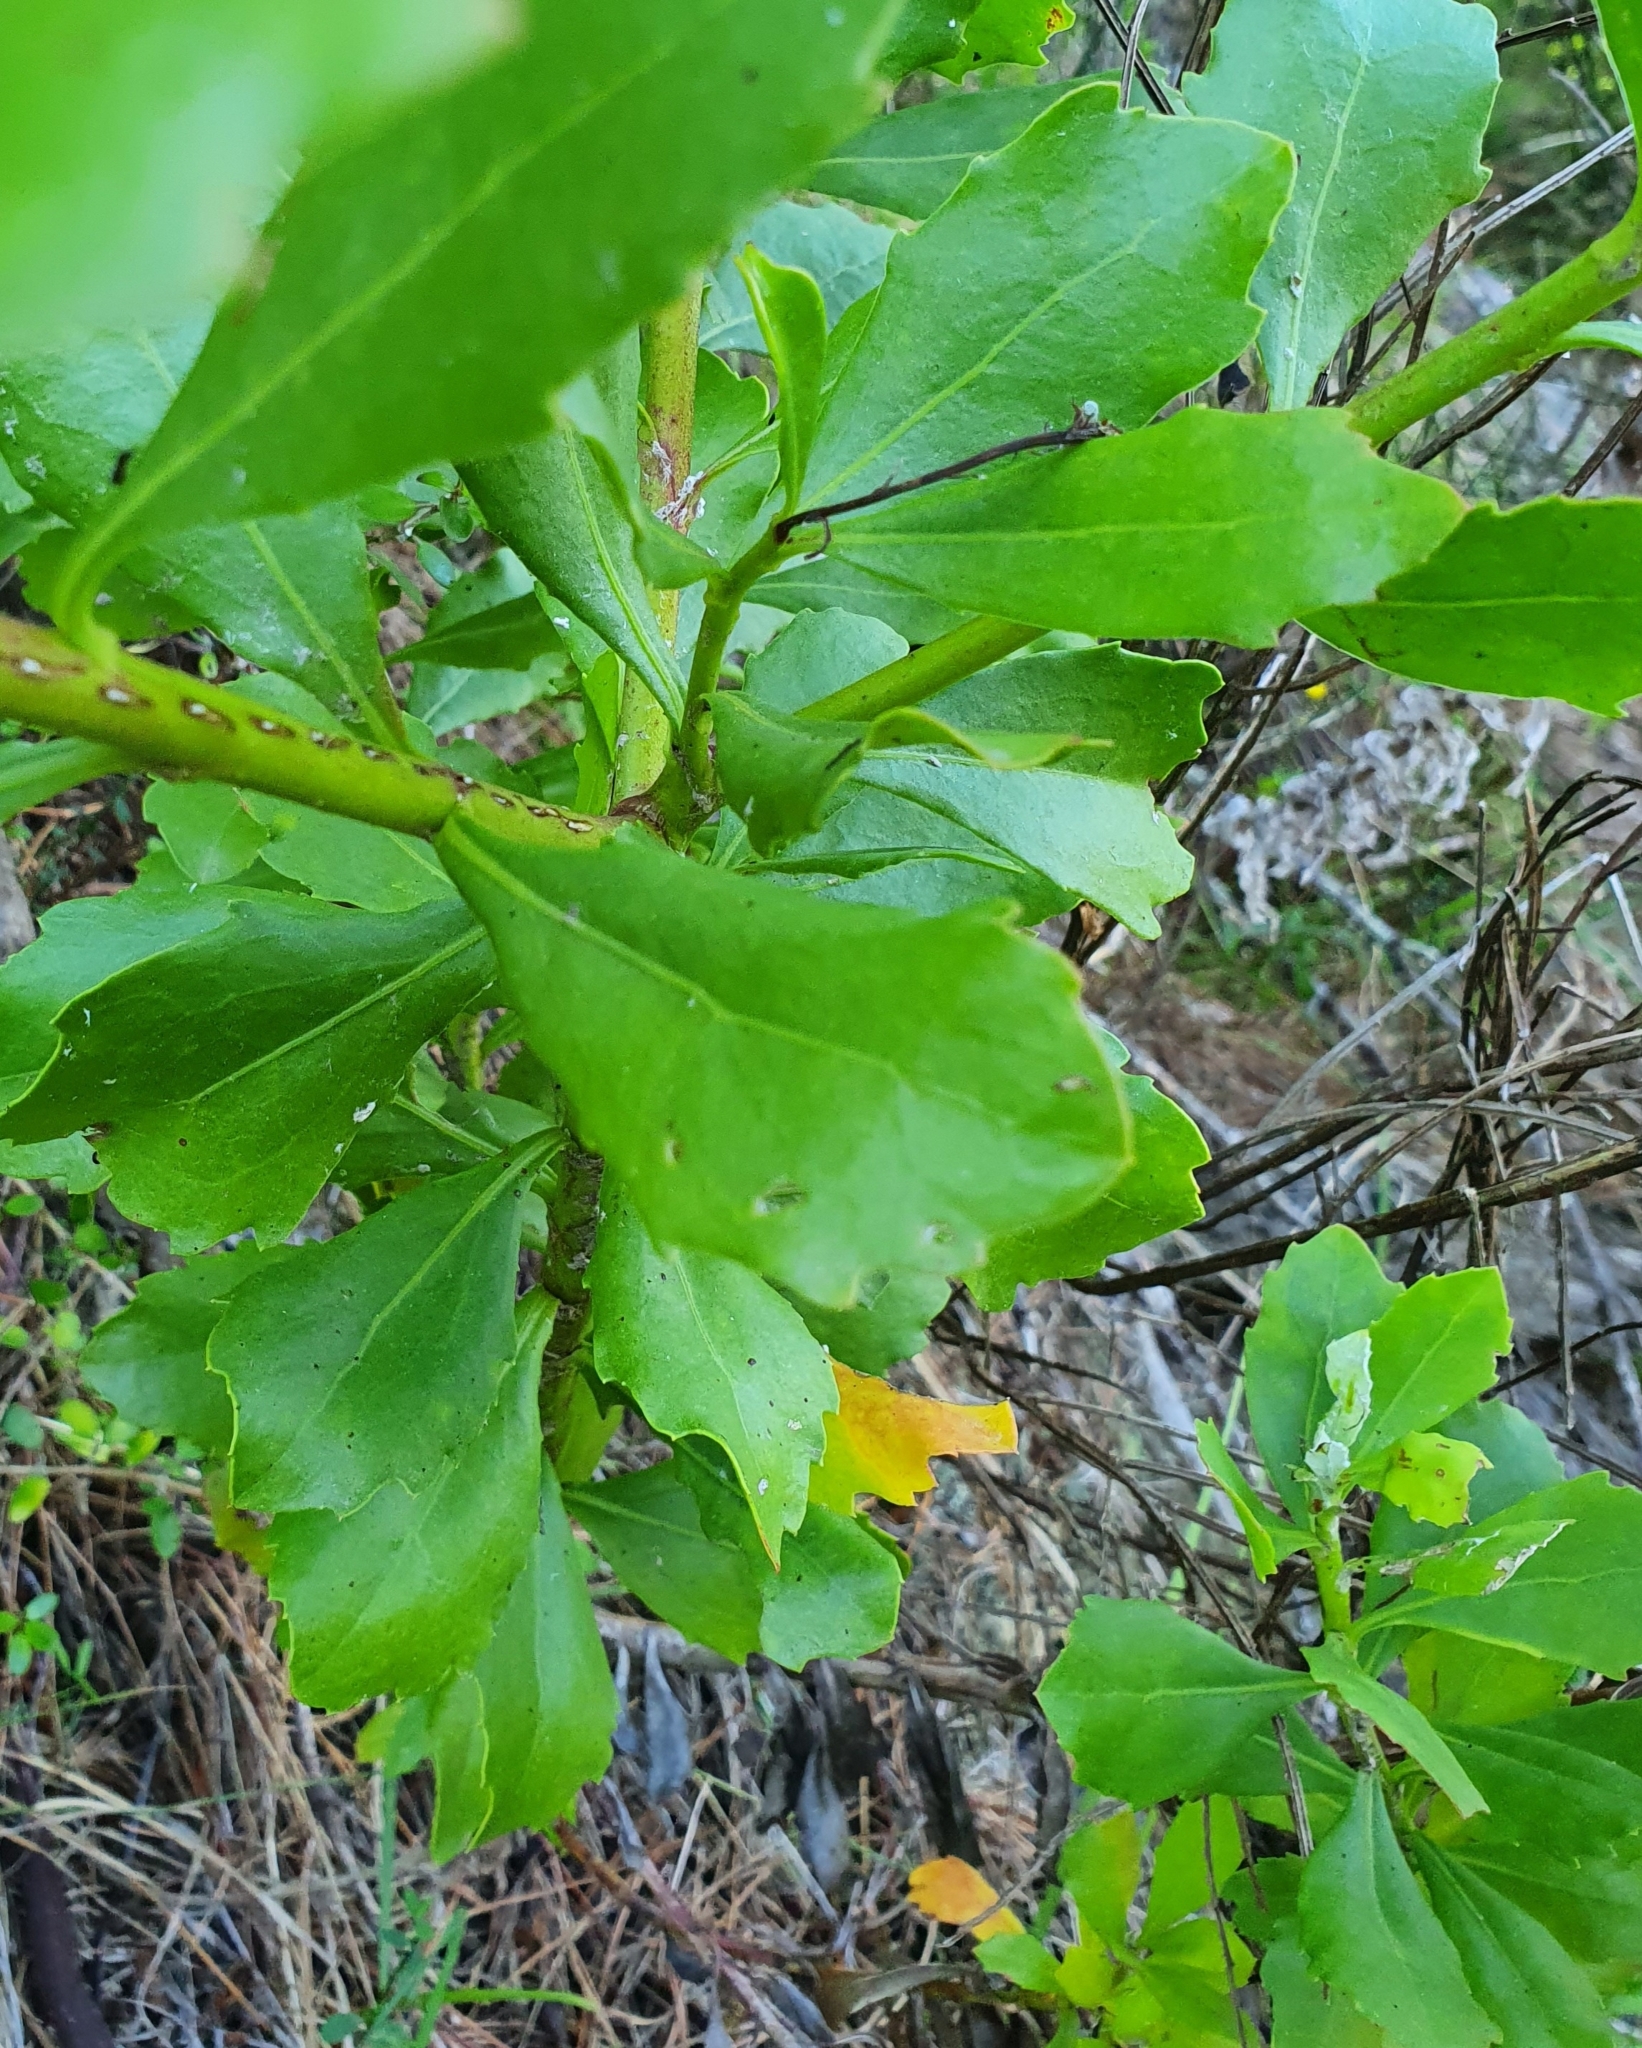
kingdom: Plantae
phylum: Tracheophyta
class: Magnoliopsida
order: Asterales
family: Asteraceae
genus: Osteospermum
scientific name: Osteospermum moniliferum
